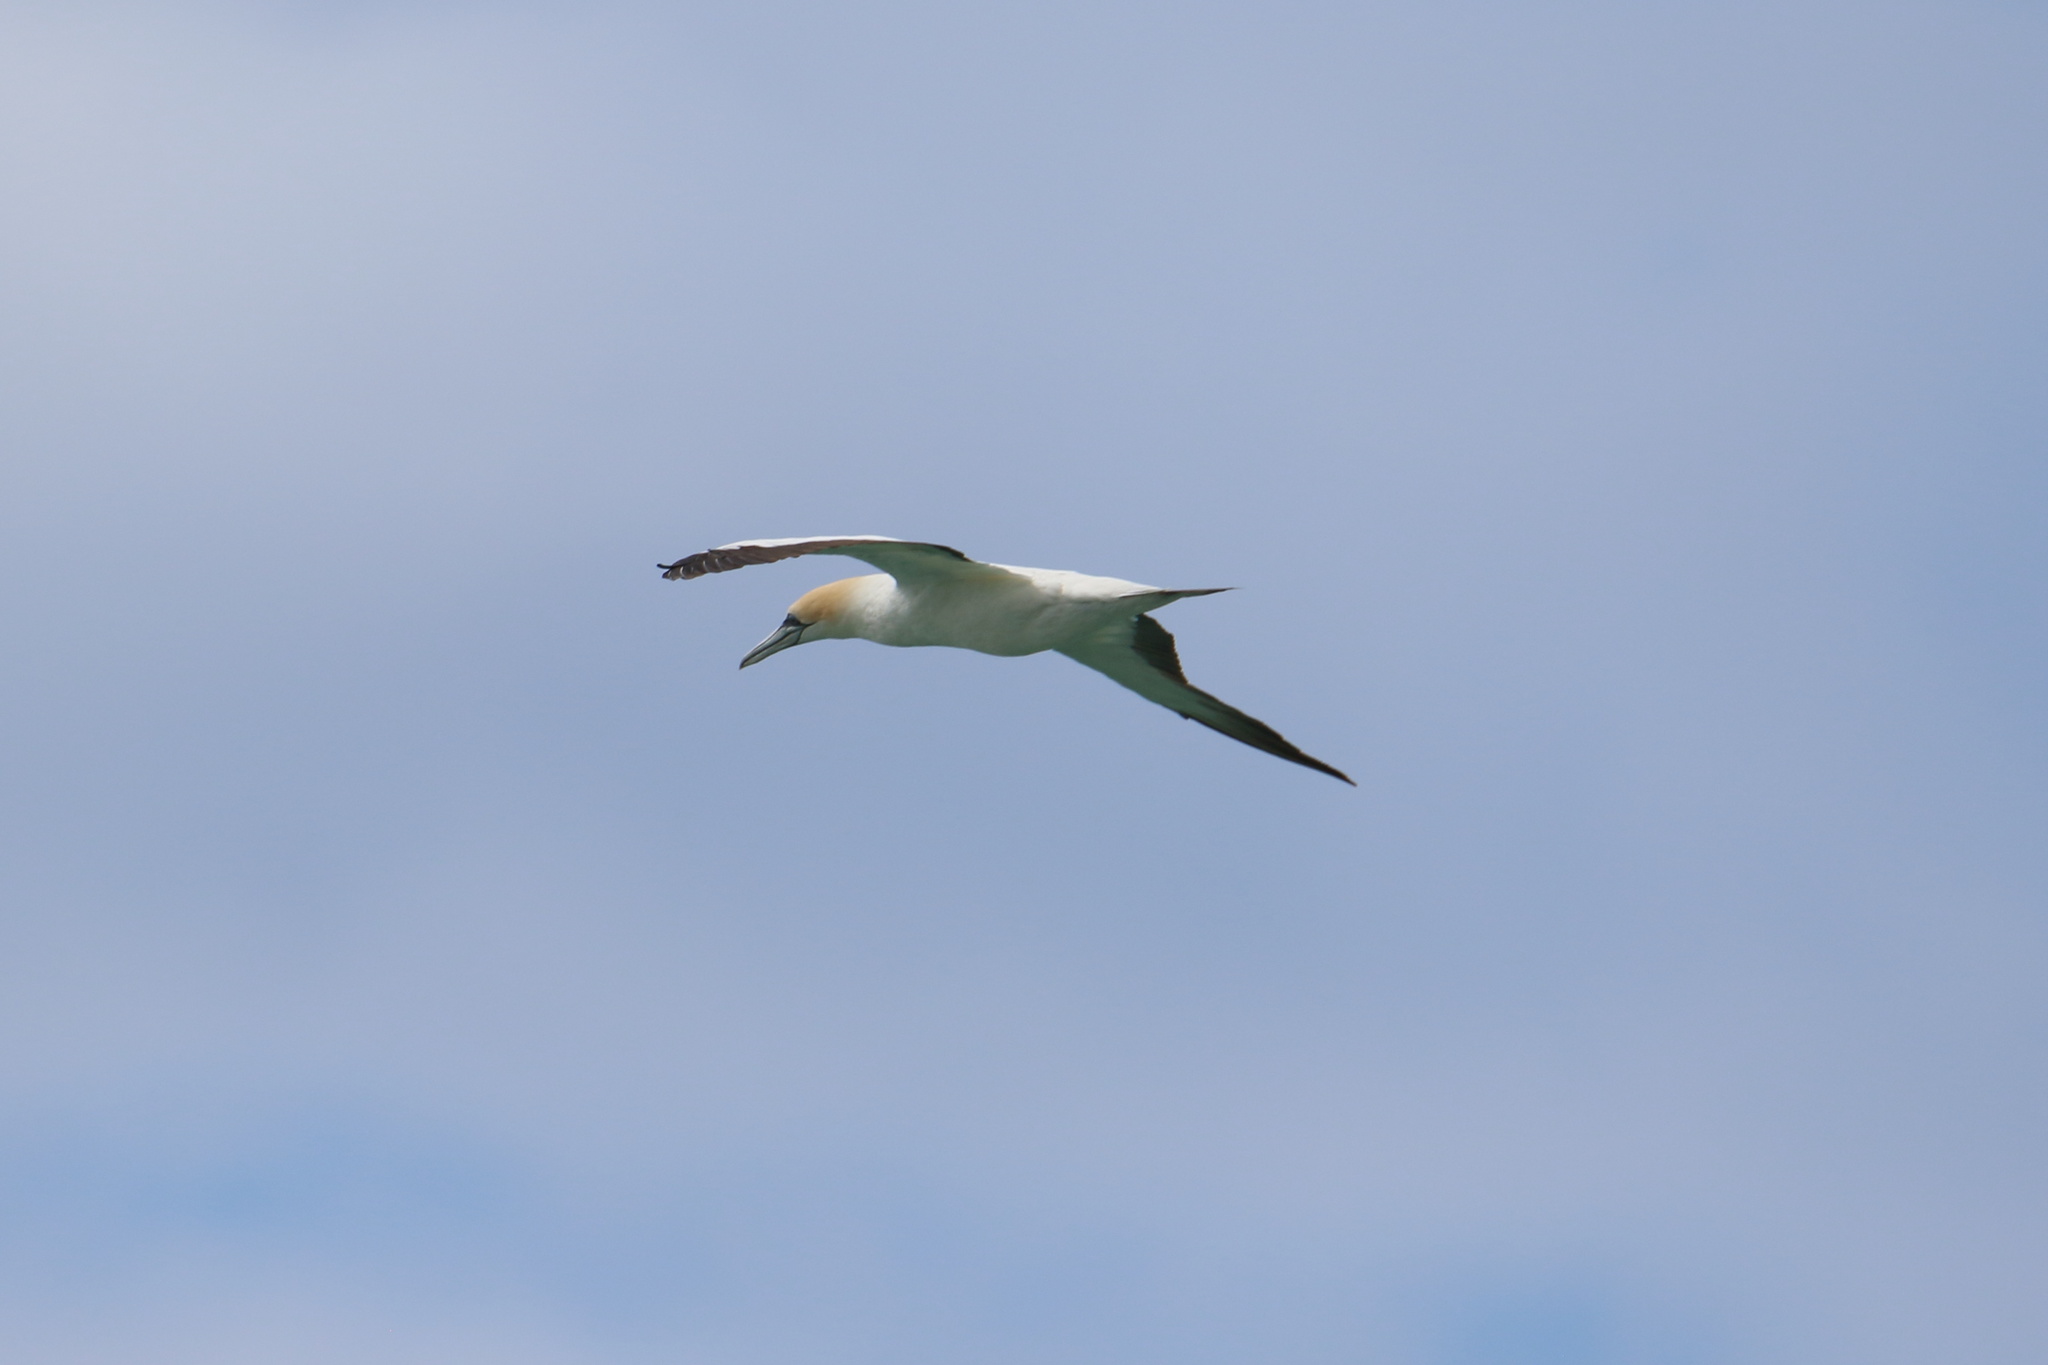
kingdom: Animalia
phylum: Chordata
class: Aves
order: Suliformes
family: Sulidae
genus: Morus
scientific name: Morus serrator
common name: Australasian gannet
